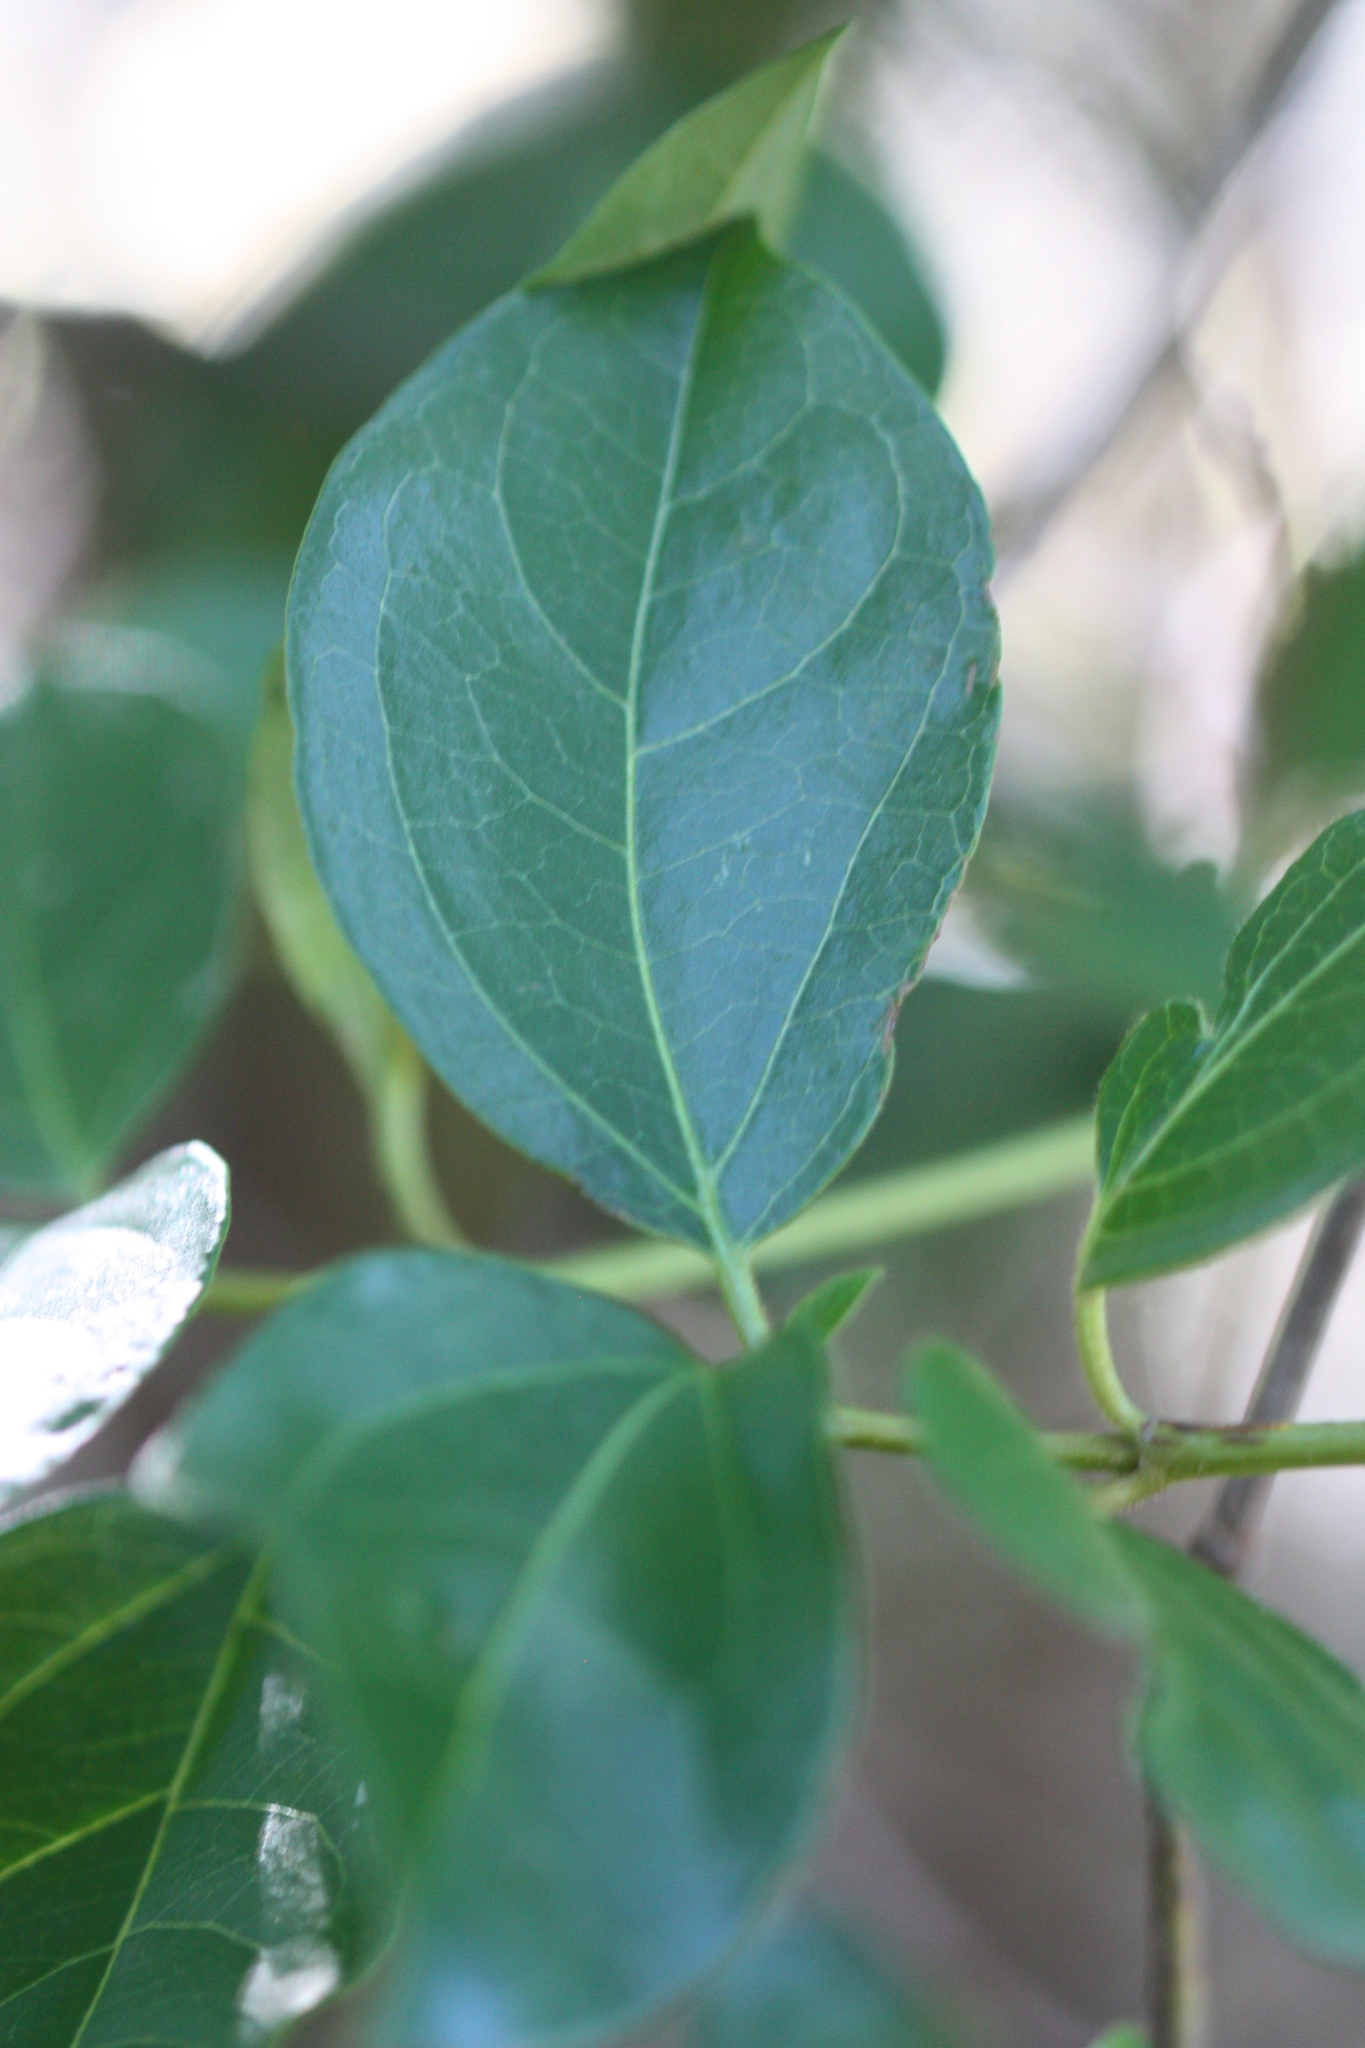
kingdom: Plantae
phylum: Tracheophyta
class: Magnoliopsida
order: Dipsacales
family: Viburnaceae
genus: Viburnum
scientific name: Viburnum tinus
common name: Laurustinus
